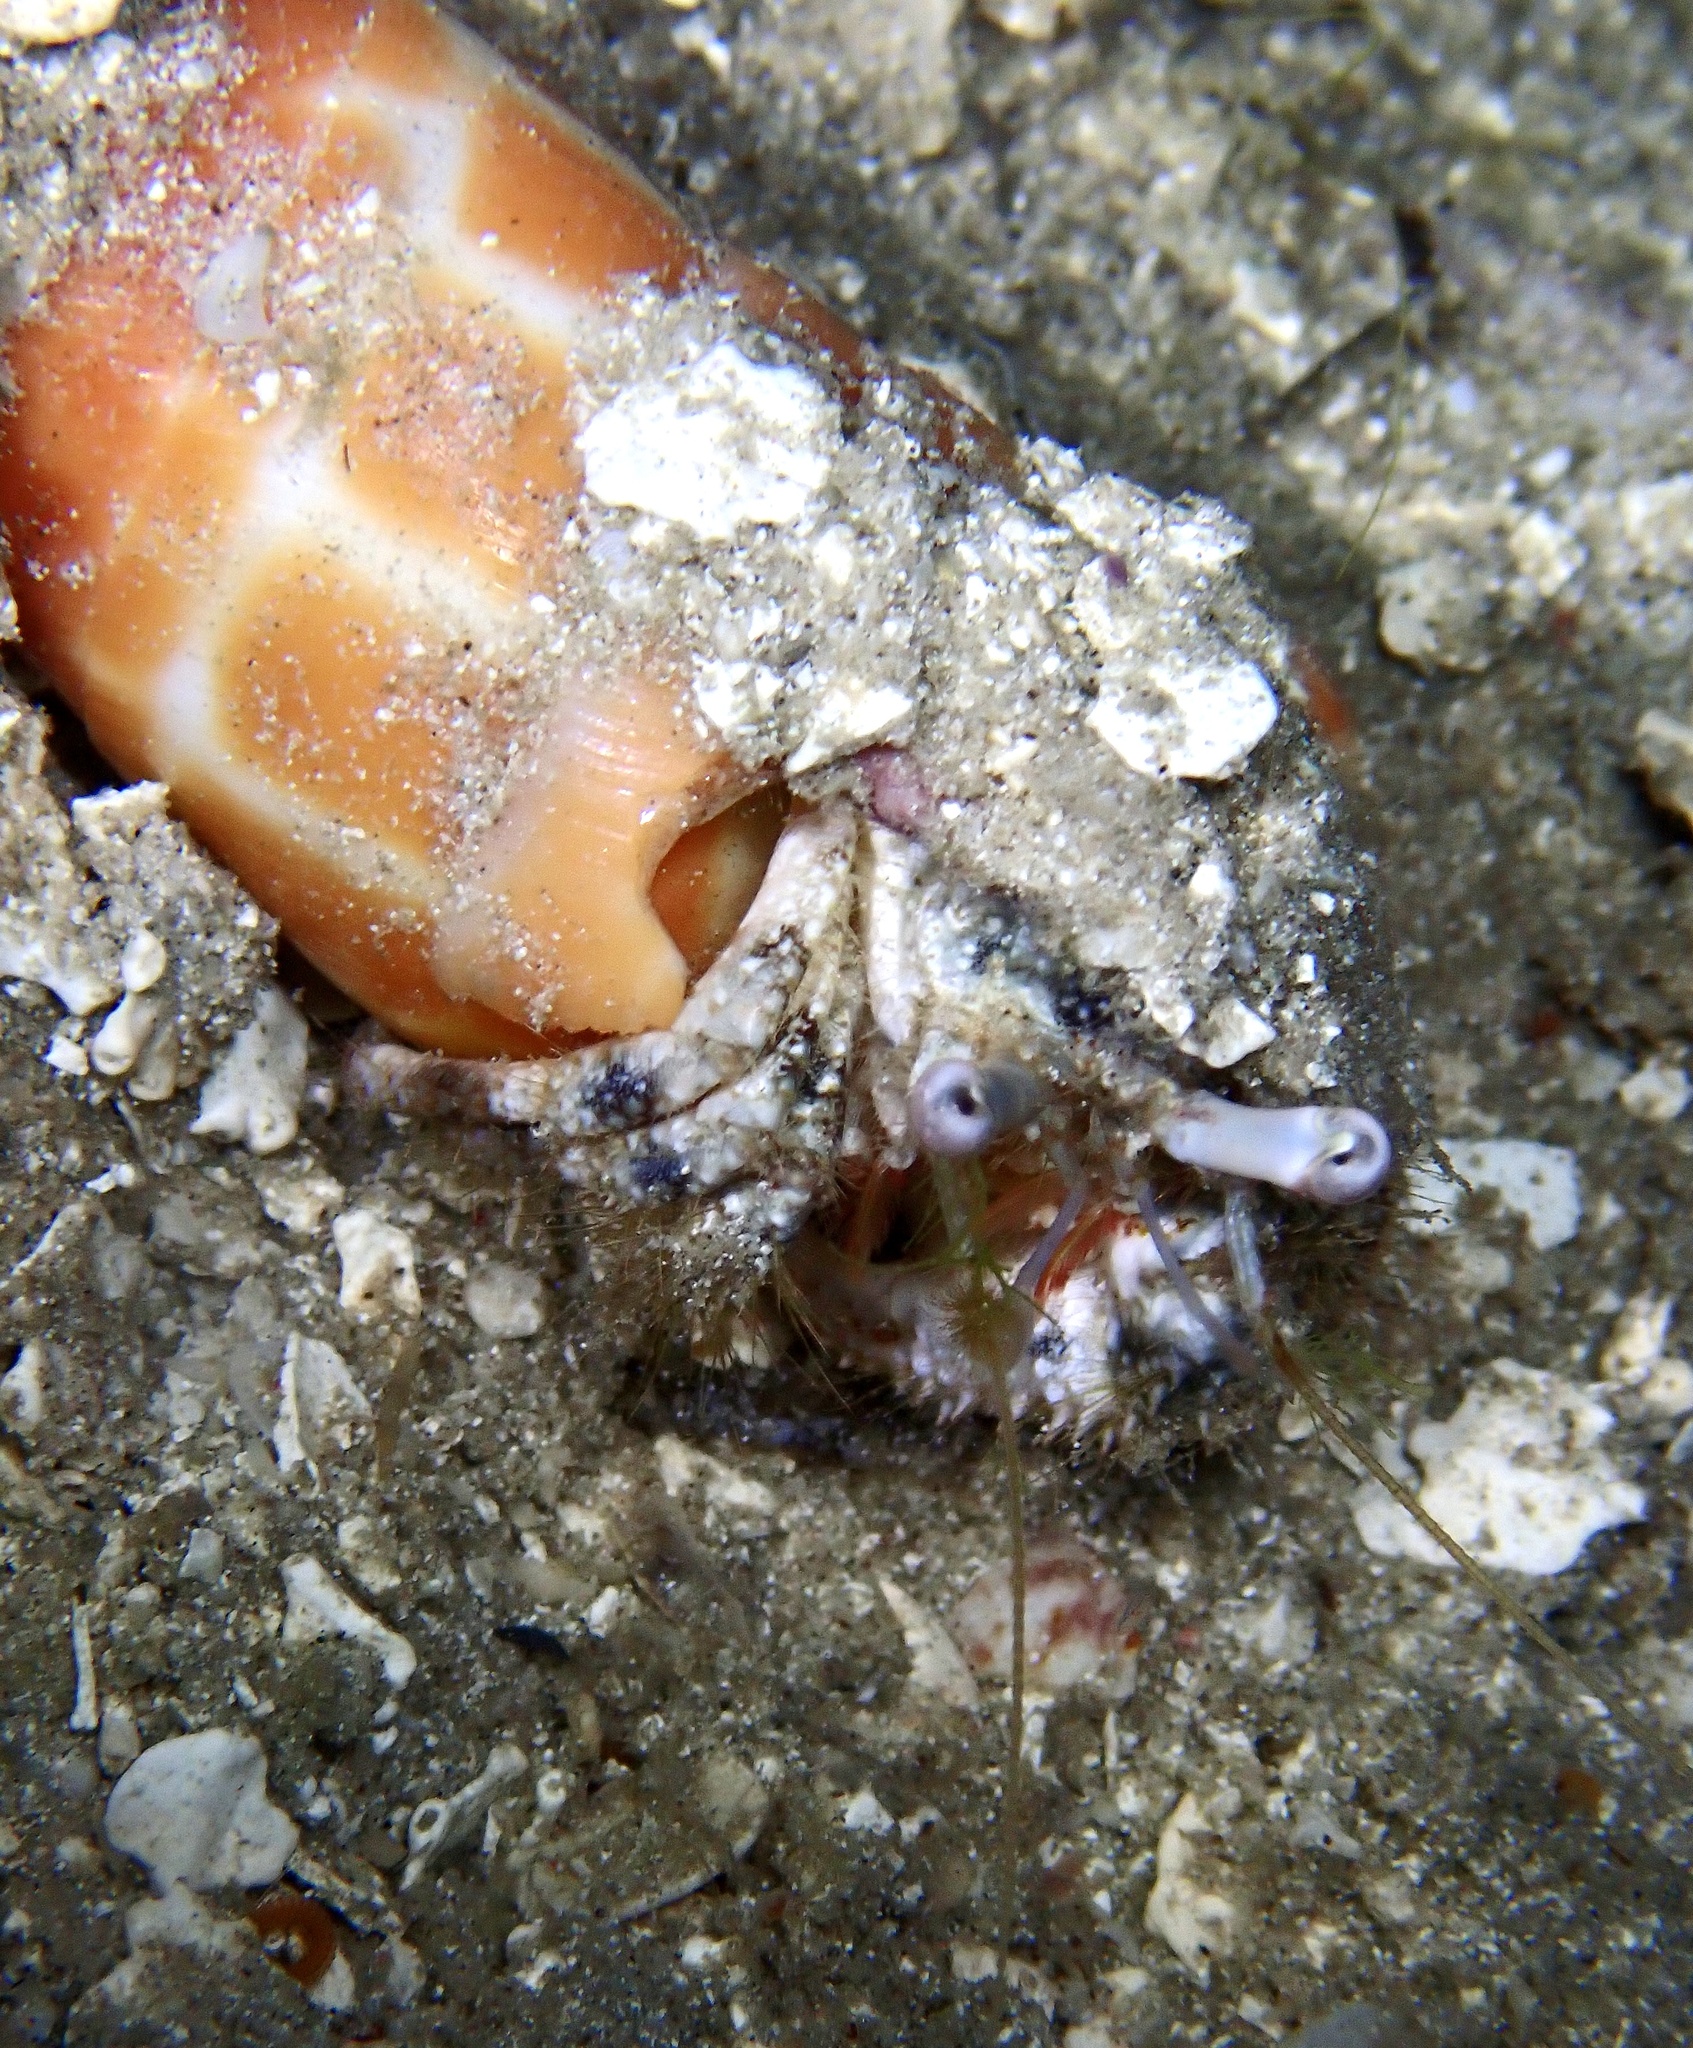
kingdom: Animalia
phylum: Arthropoda
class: Malacostraca
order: Decapoda
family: Diogenidae
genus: Dardanus
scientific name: Dardanus woodmasoni
